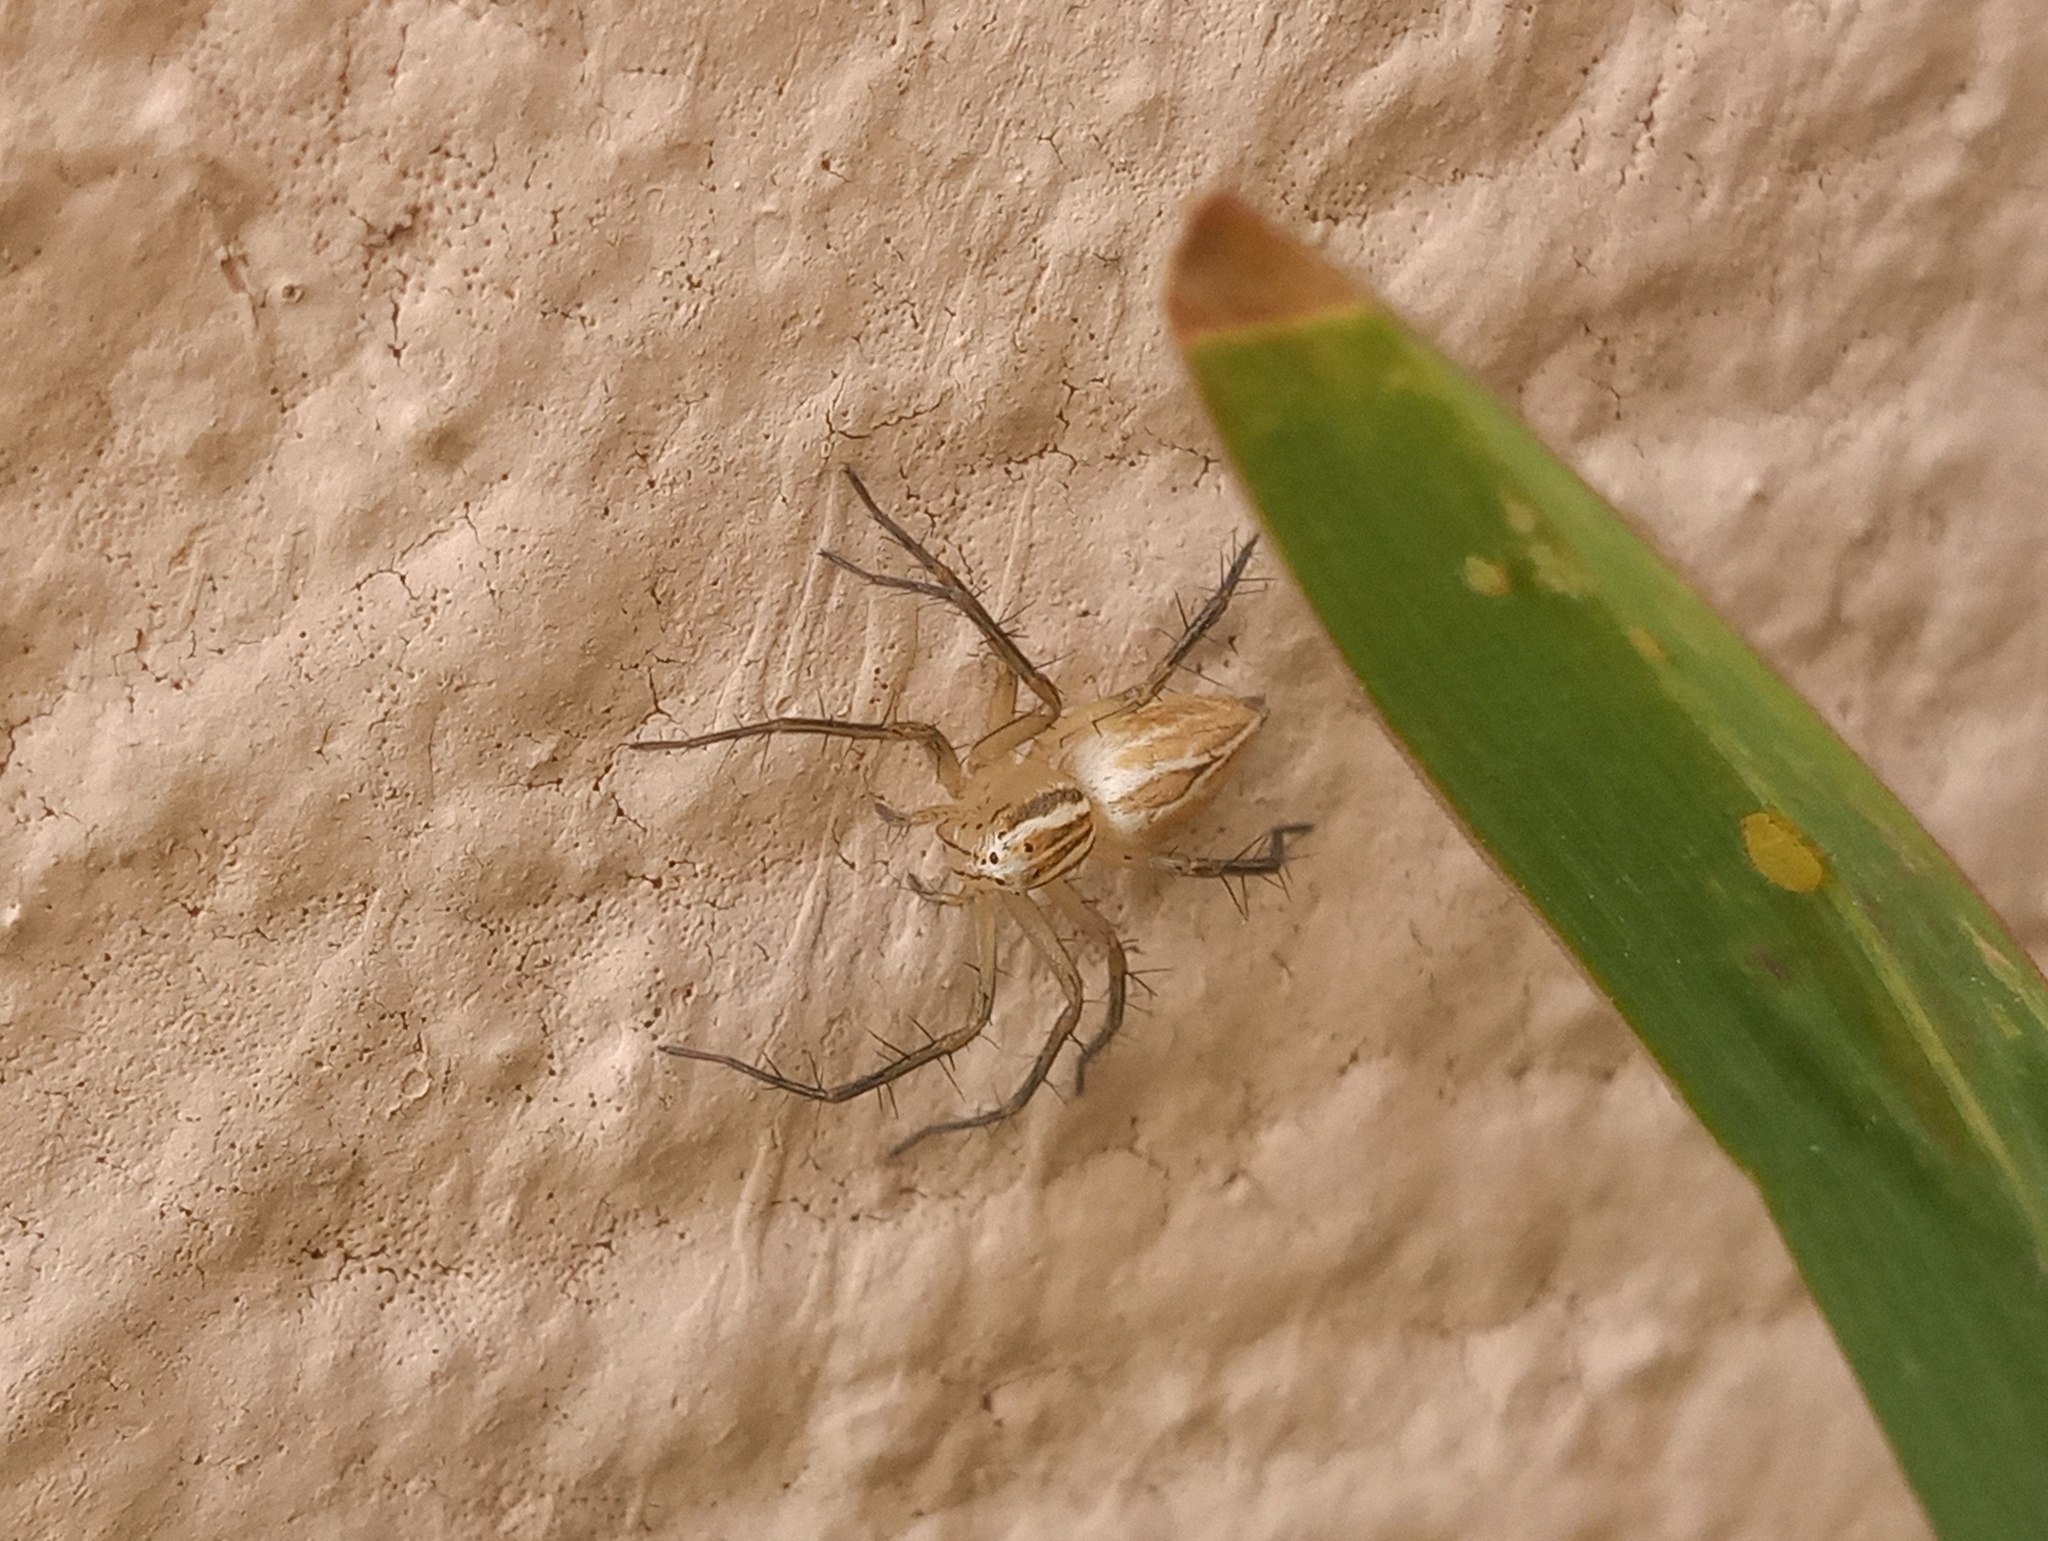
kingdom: Animalia
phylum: Arthropoda
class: Arachnida
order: Araneae
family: Oxyopidae
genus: Oxyopes
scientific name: Oxyopes salticus
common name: Lynx spiders
